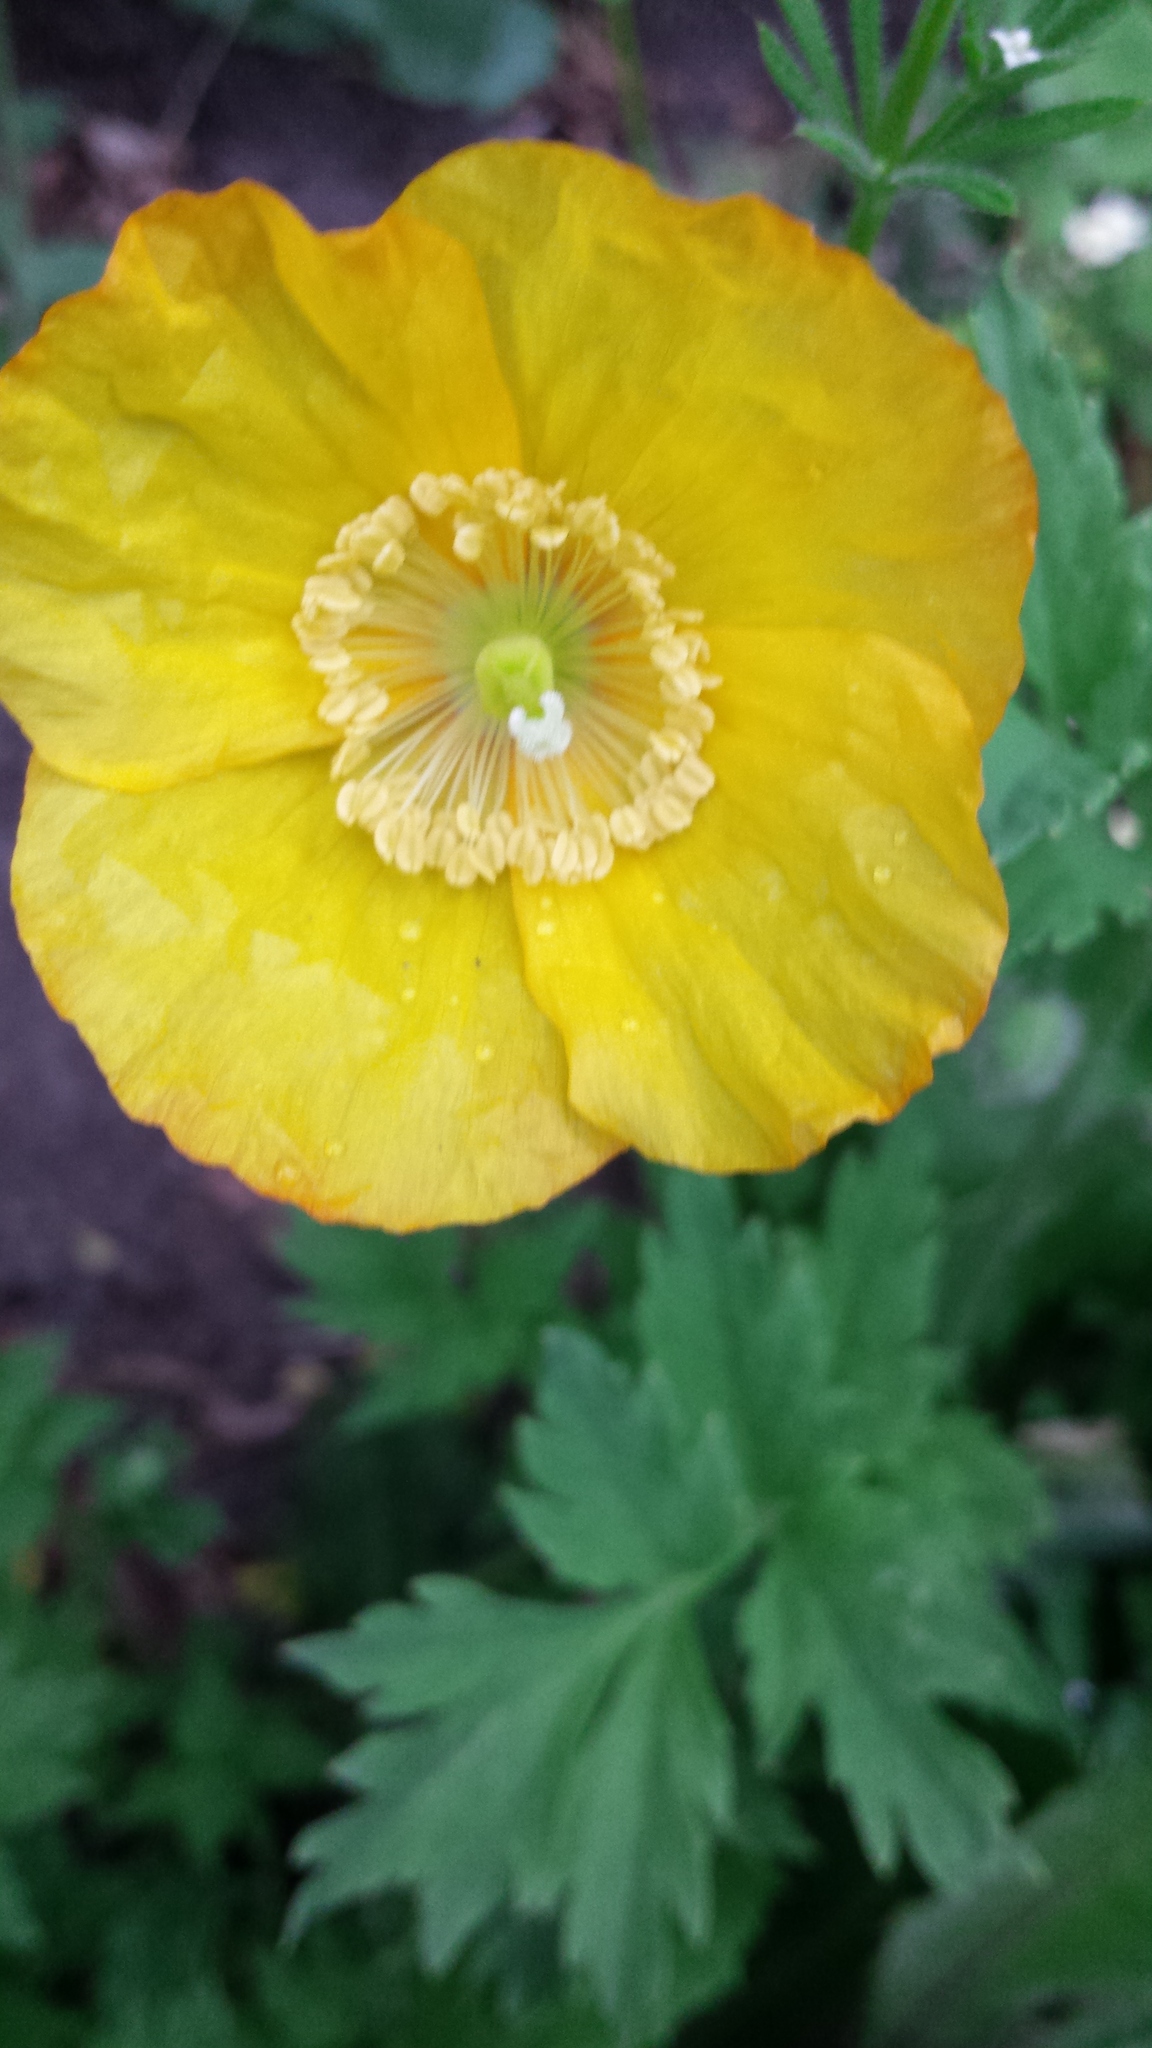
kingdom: Plantae
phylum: Tracheophyta
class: Magnoliopsida
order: Ranunculales
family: Papaveraceae
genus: Papaver
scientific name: Papaver cambricum
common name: Poppy
